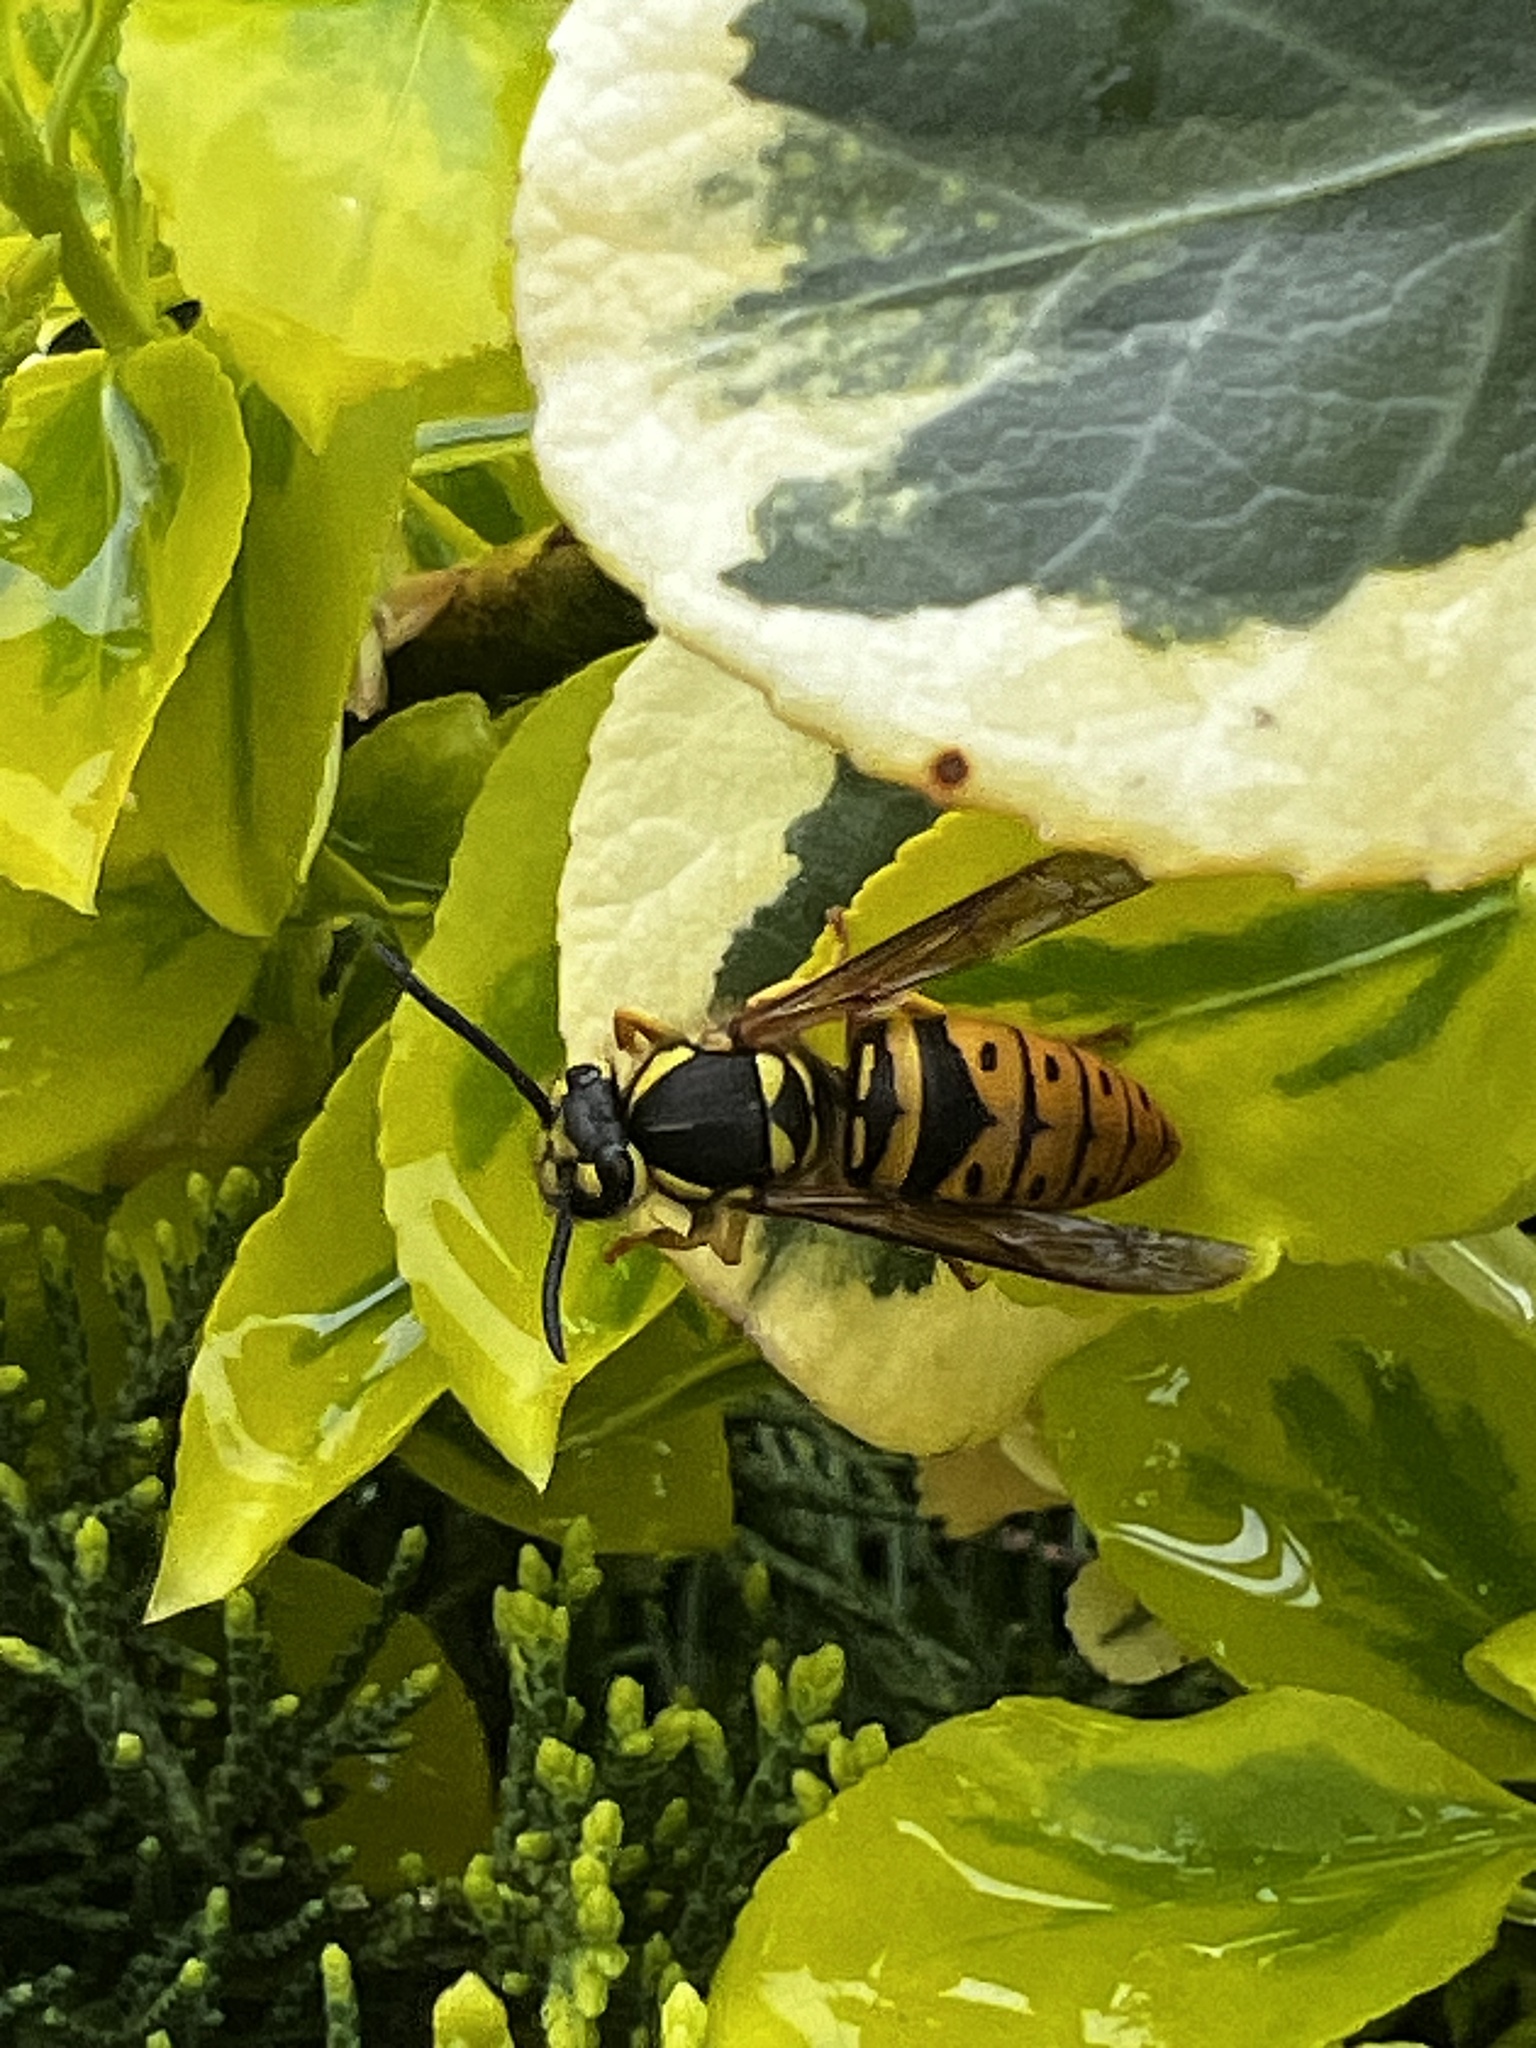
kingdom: Animalia
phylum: Arthropoda
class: Insecta
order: Hymenoptera
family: Vespidae
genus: Vespula
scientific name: Vespula maculifrons
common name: Eastern yellowjacket
